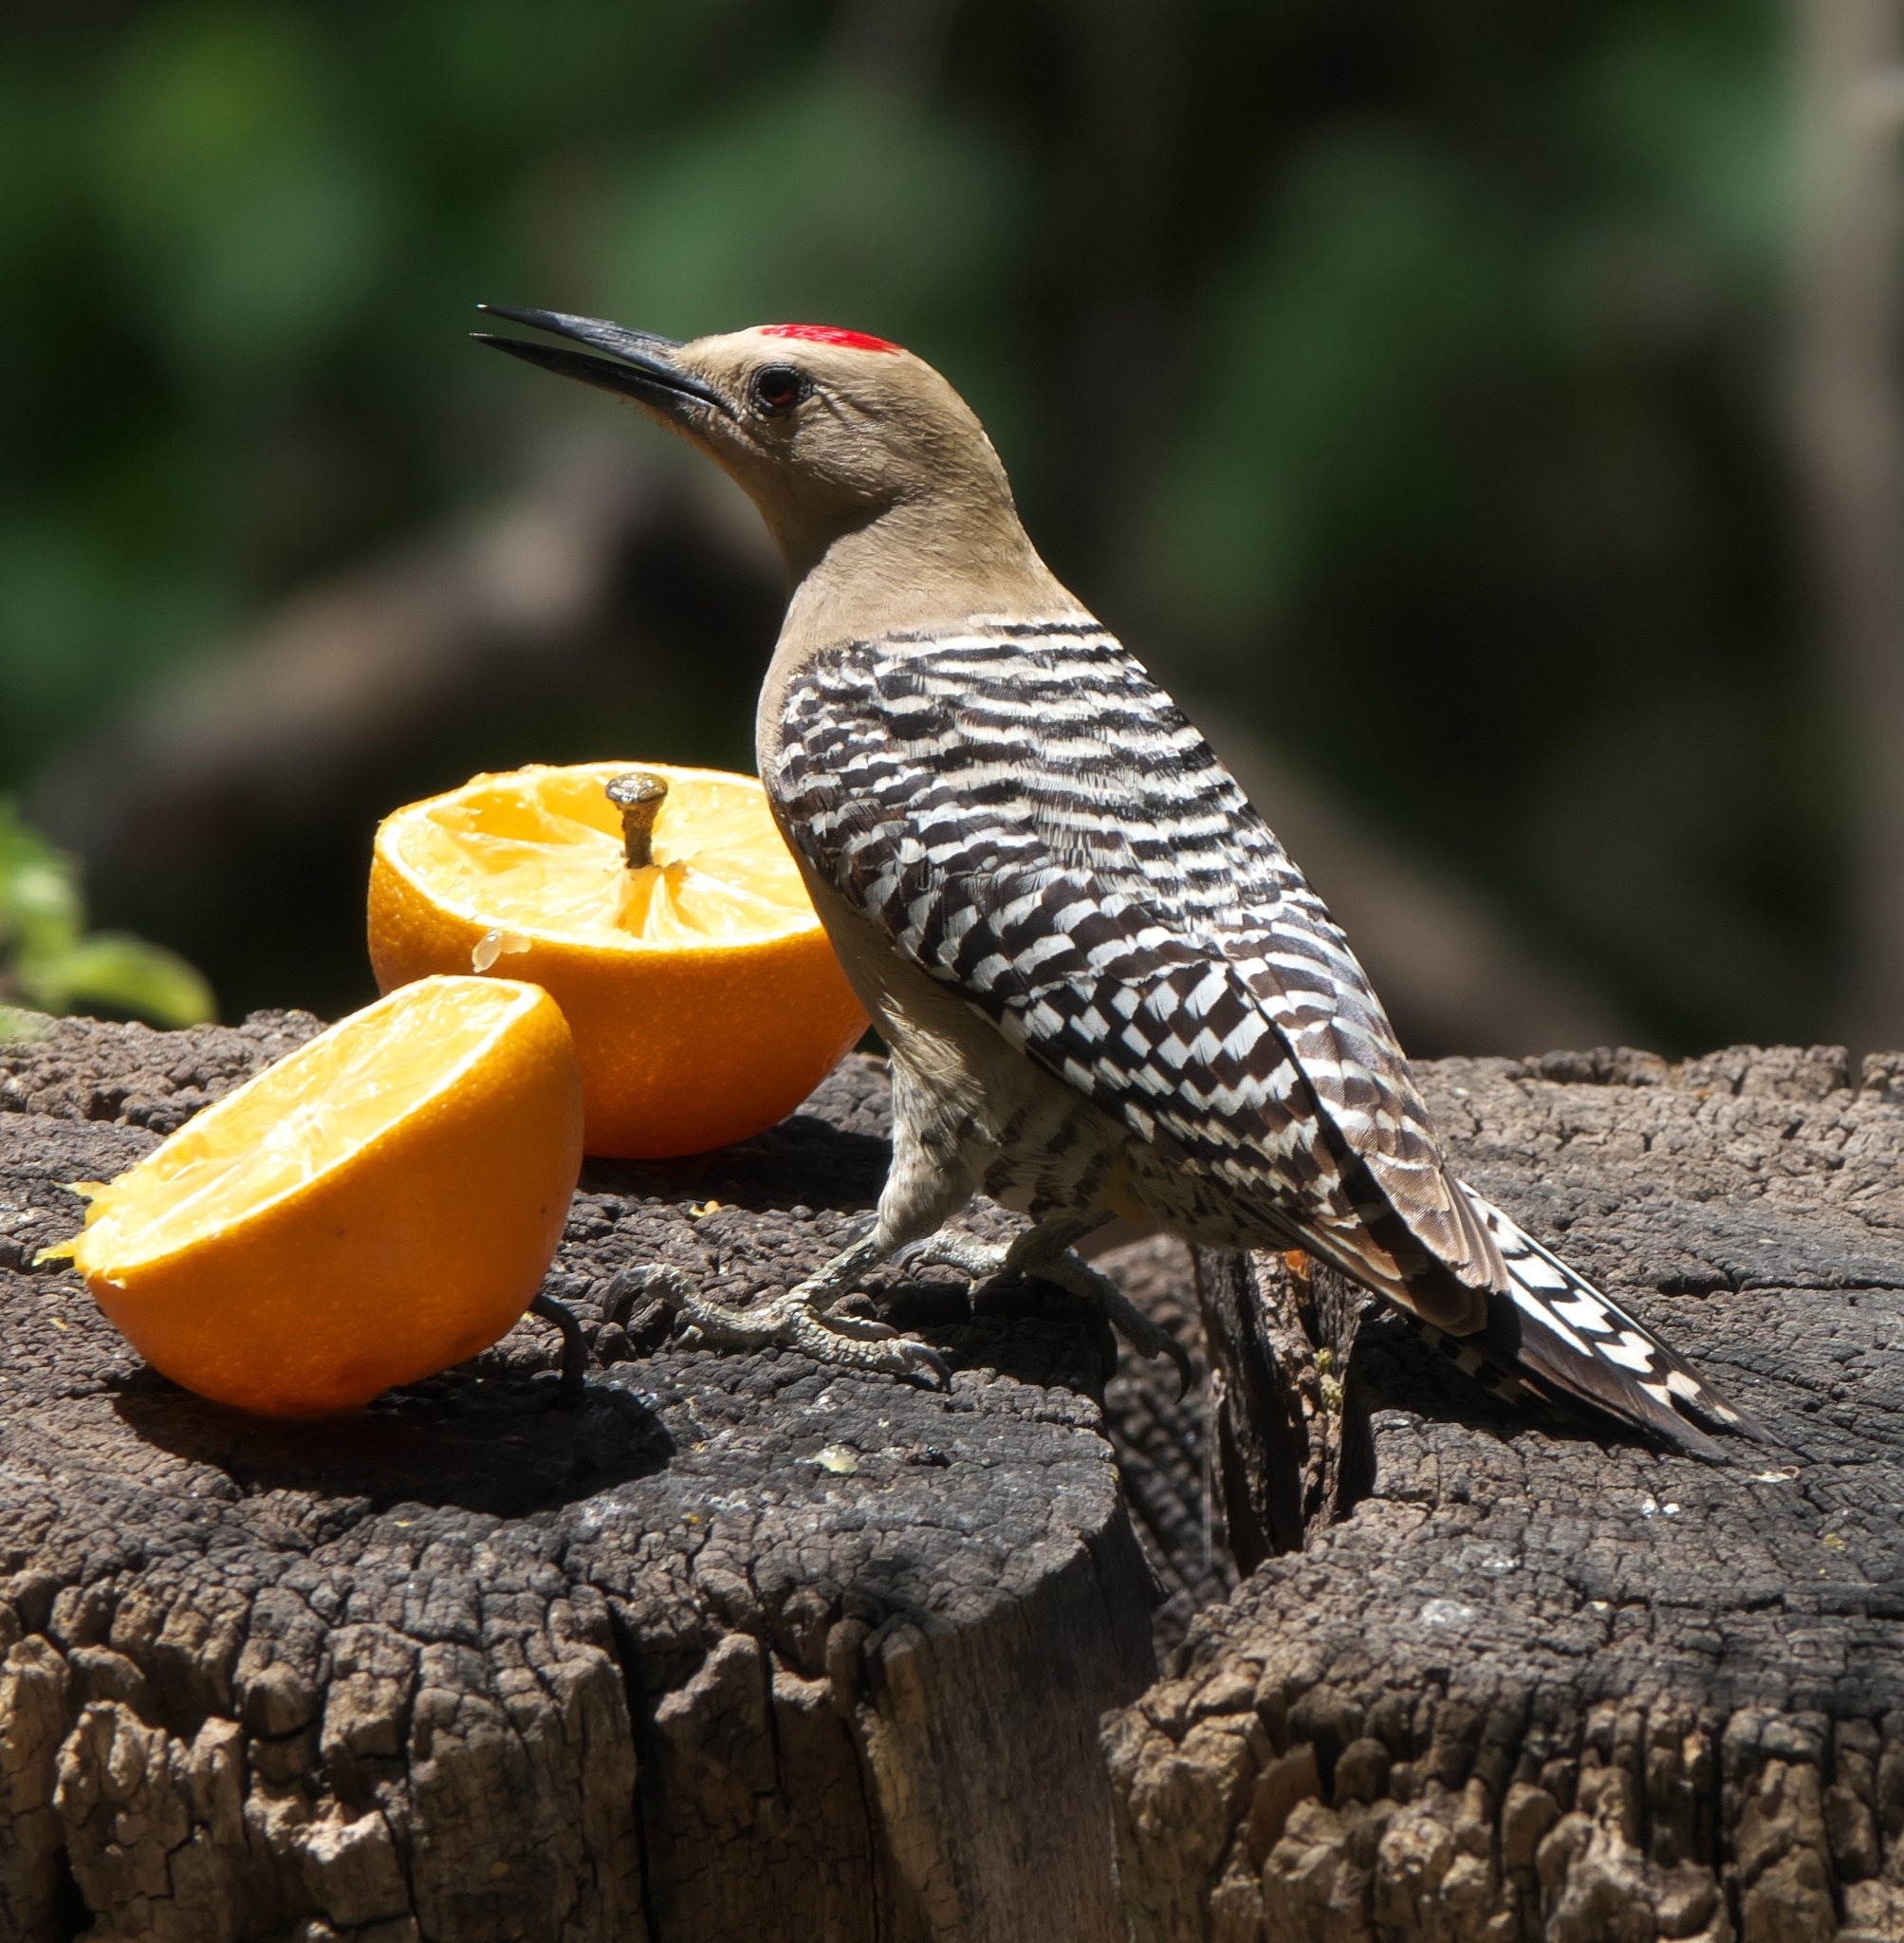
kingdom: Animalia
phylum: Chordata
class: Aves
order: Piciformes
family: Picidae
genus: Melanerpes
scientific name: Melanerpes uropygialis
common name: Gila woodpecker
